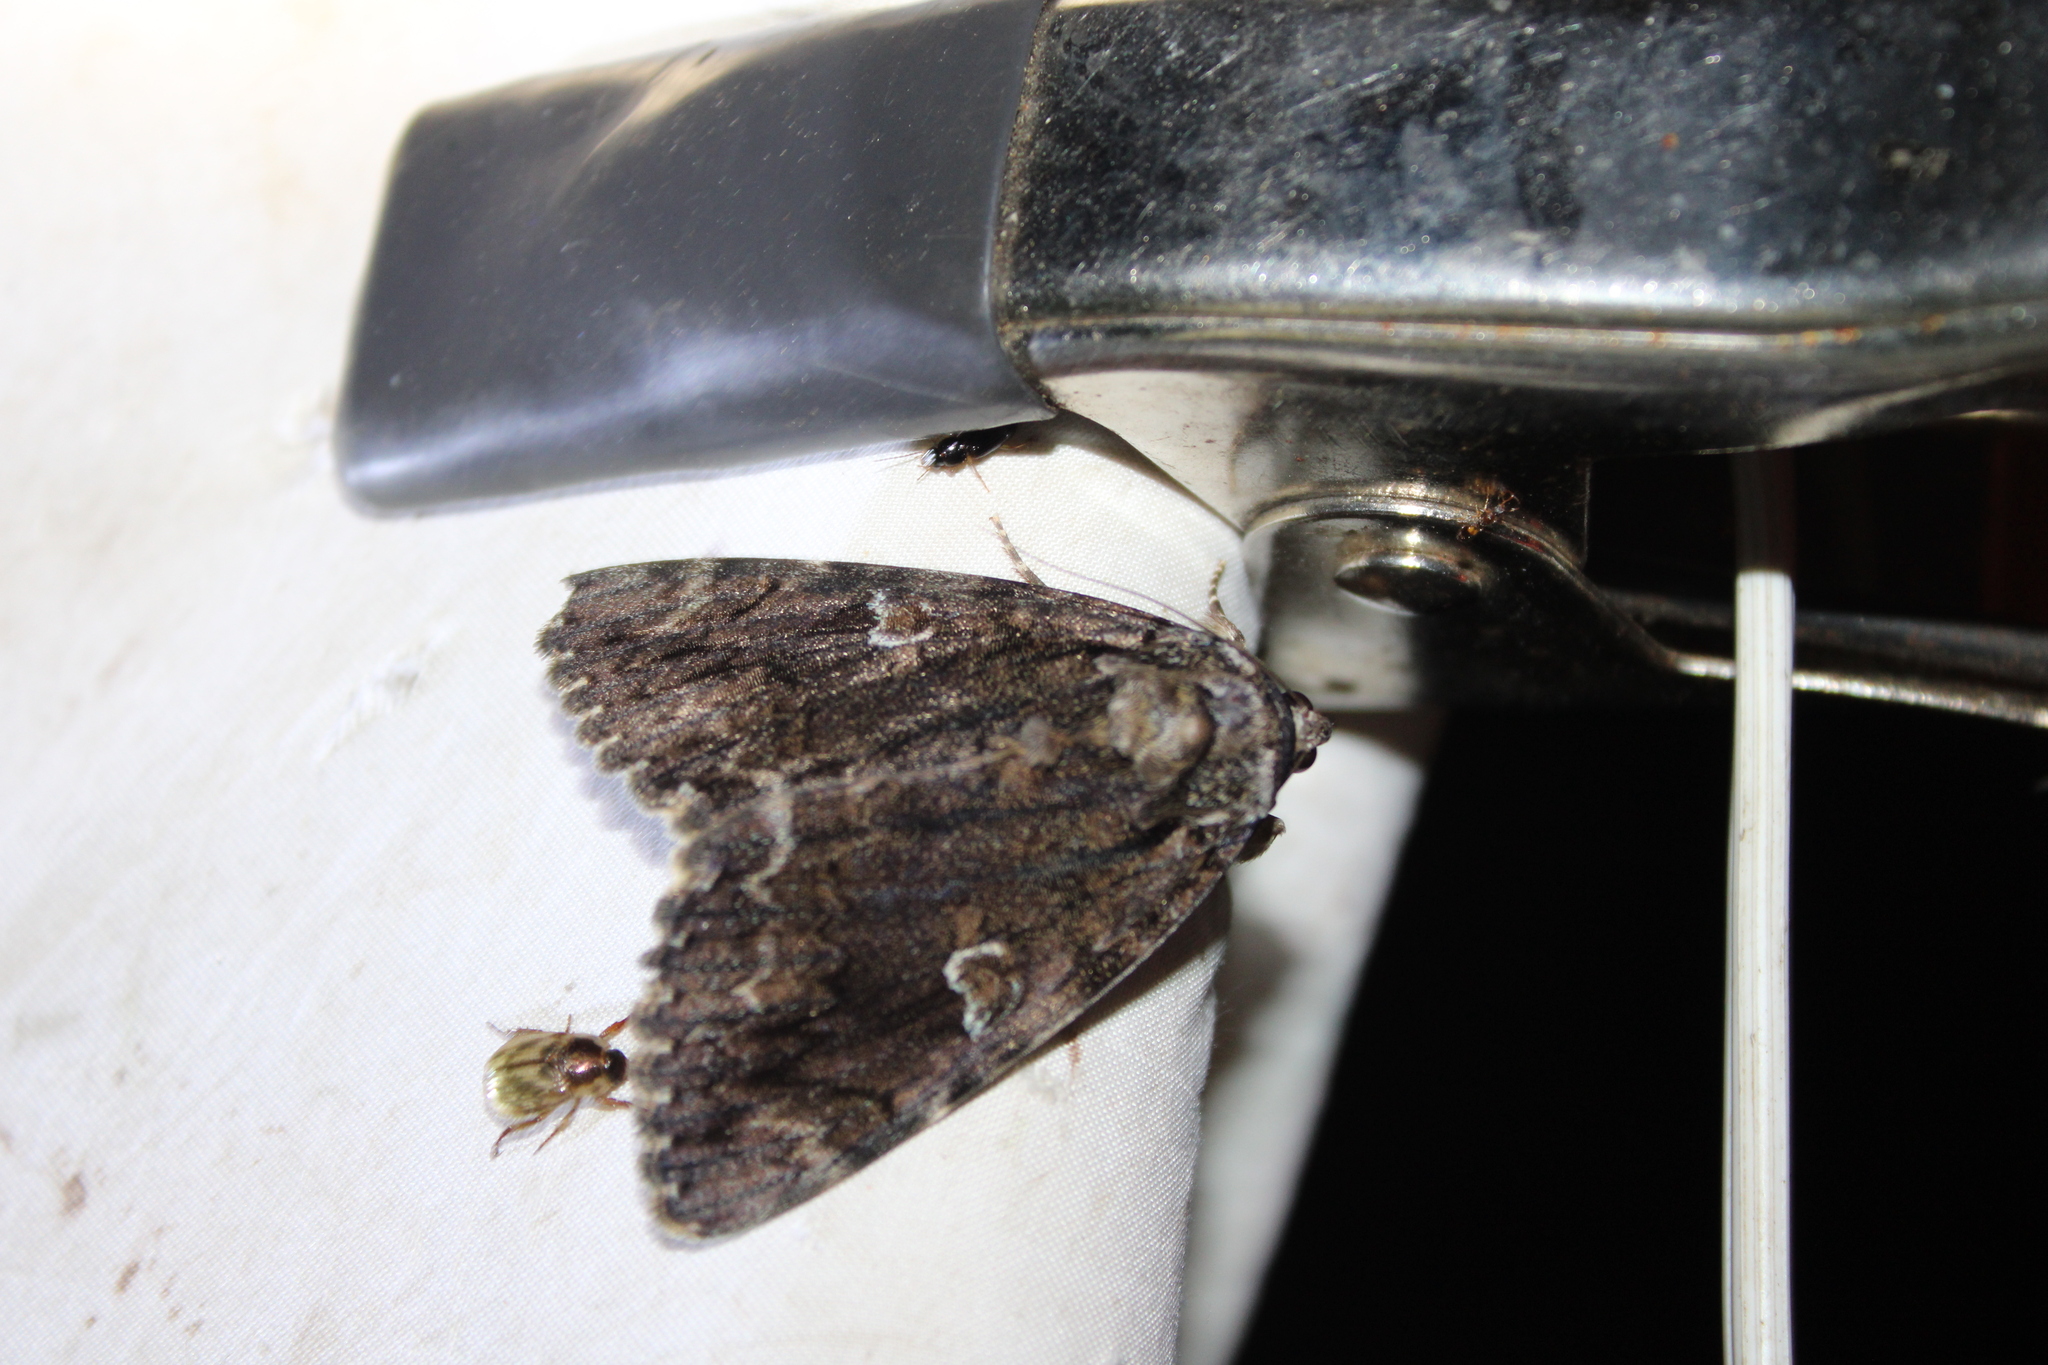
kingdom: Animalia
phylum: Arthropoda
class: Insecta
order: Lepidoptera
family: Erebidae
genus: Catocala
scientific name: Catocala ilia
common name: Ilia underwing
